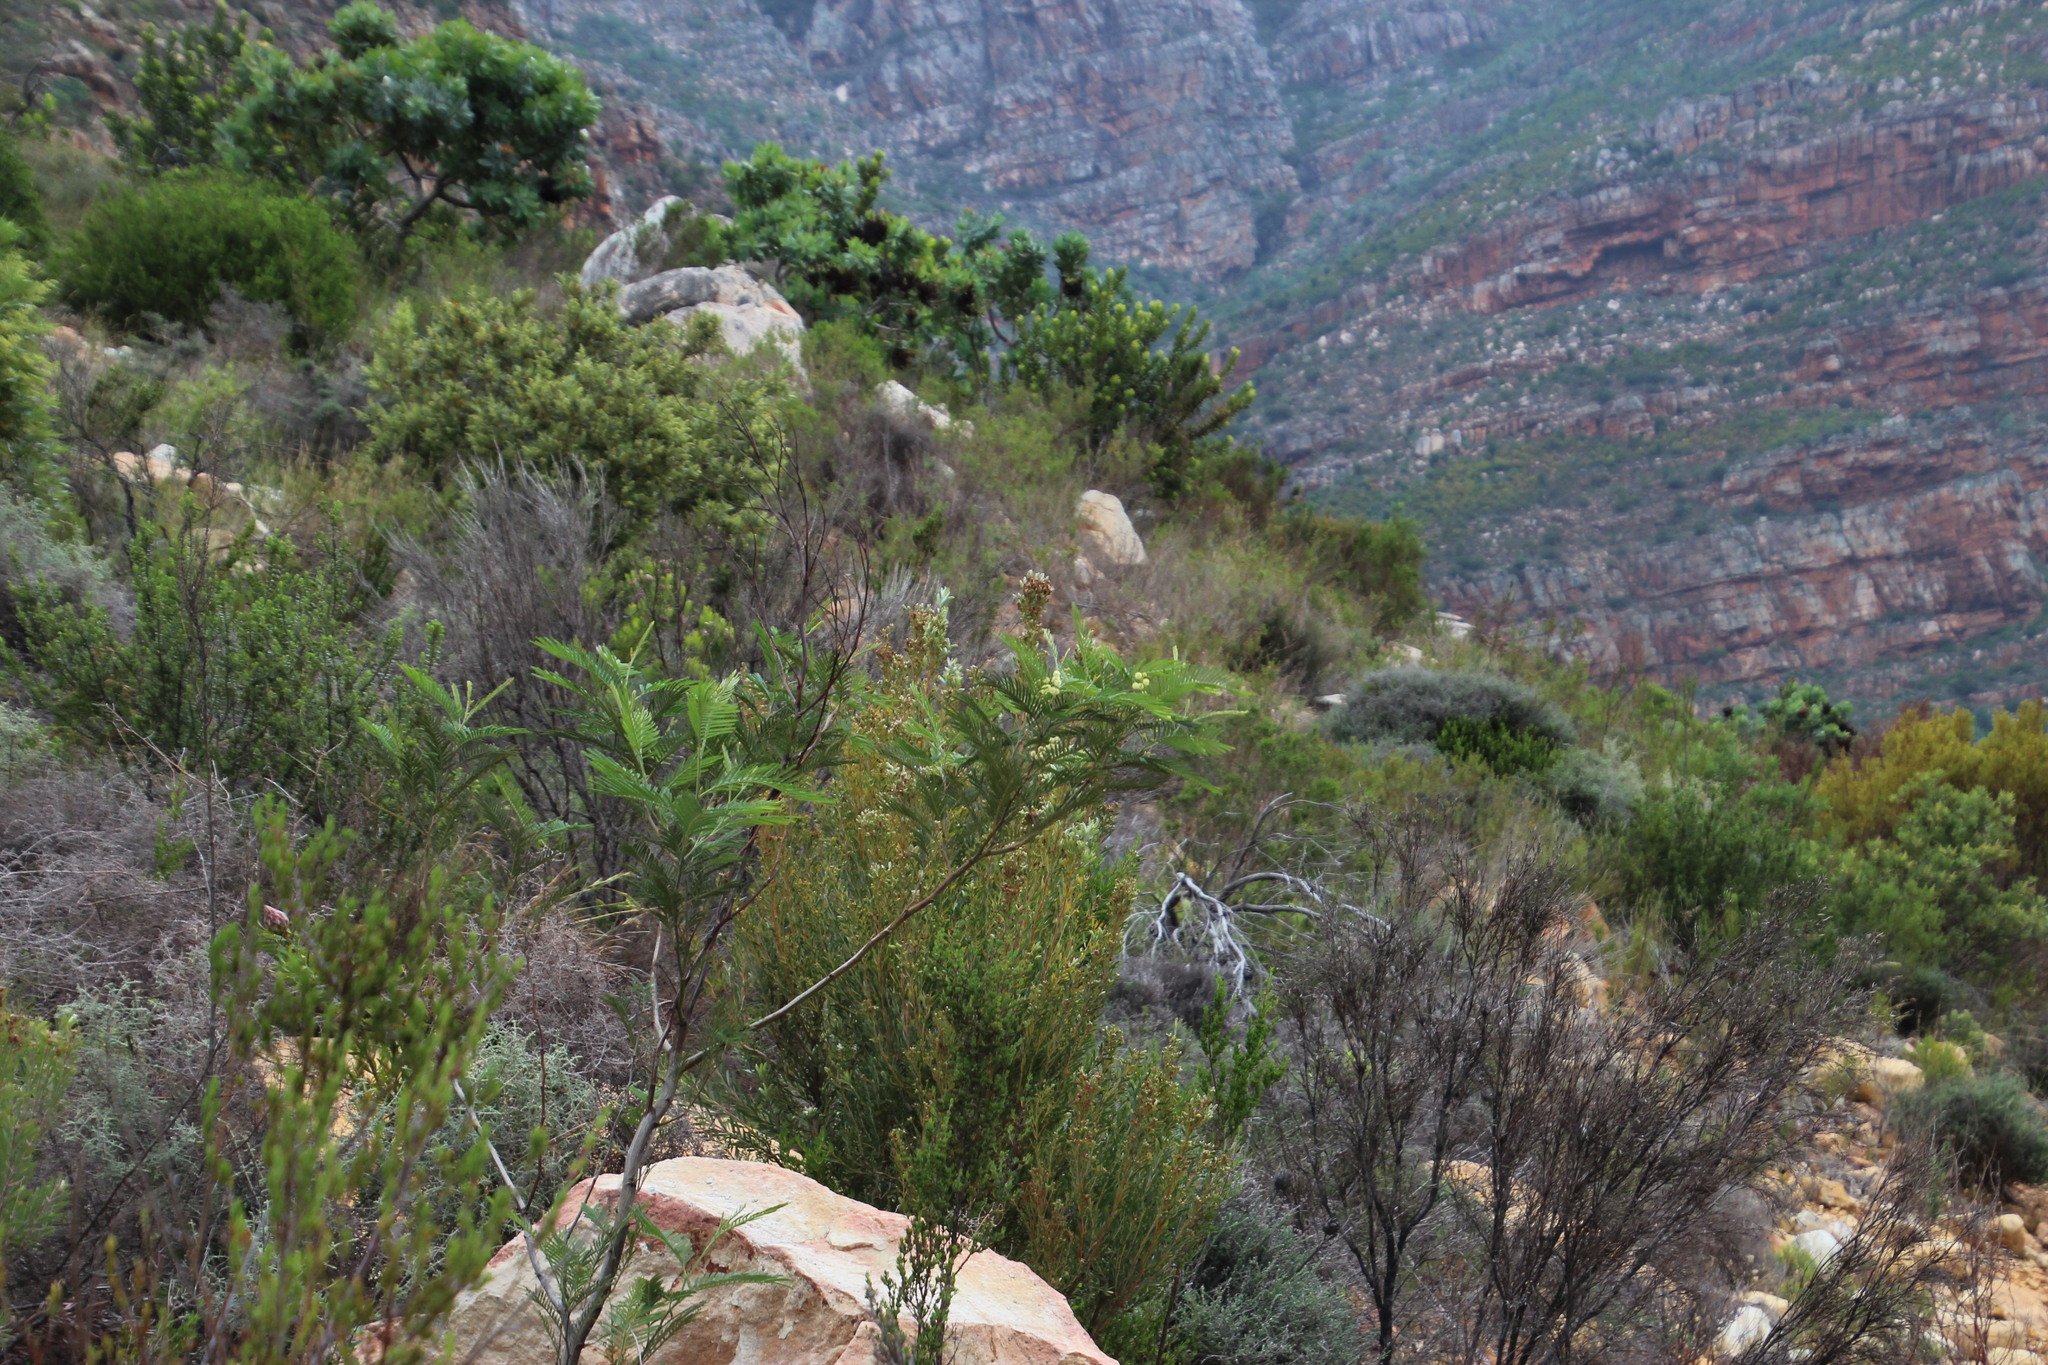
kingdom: Plantae
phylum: Tracheophyta
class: Magnoliopsida
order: Fabales
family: Fabaceae
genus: Acacia
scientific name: Acacia mearnsii
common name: Black wattle
